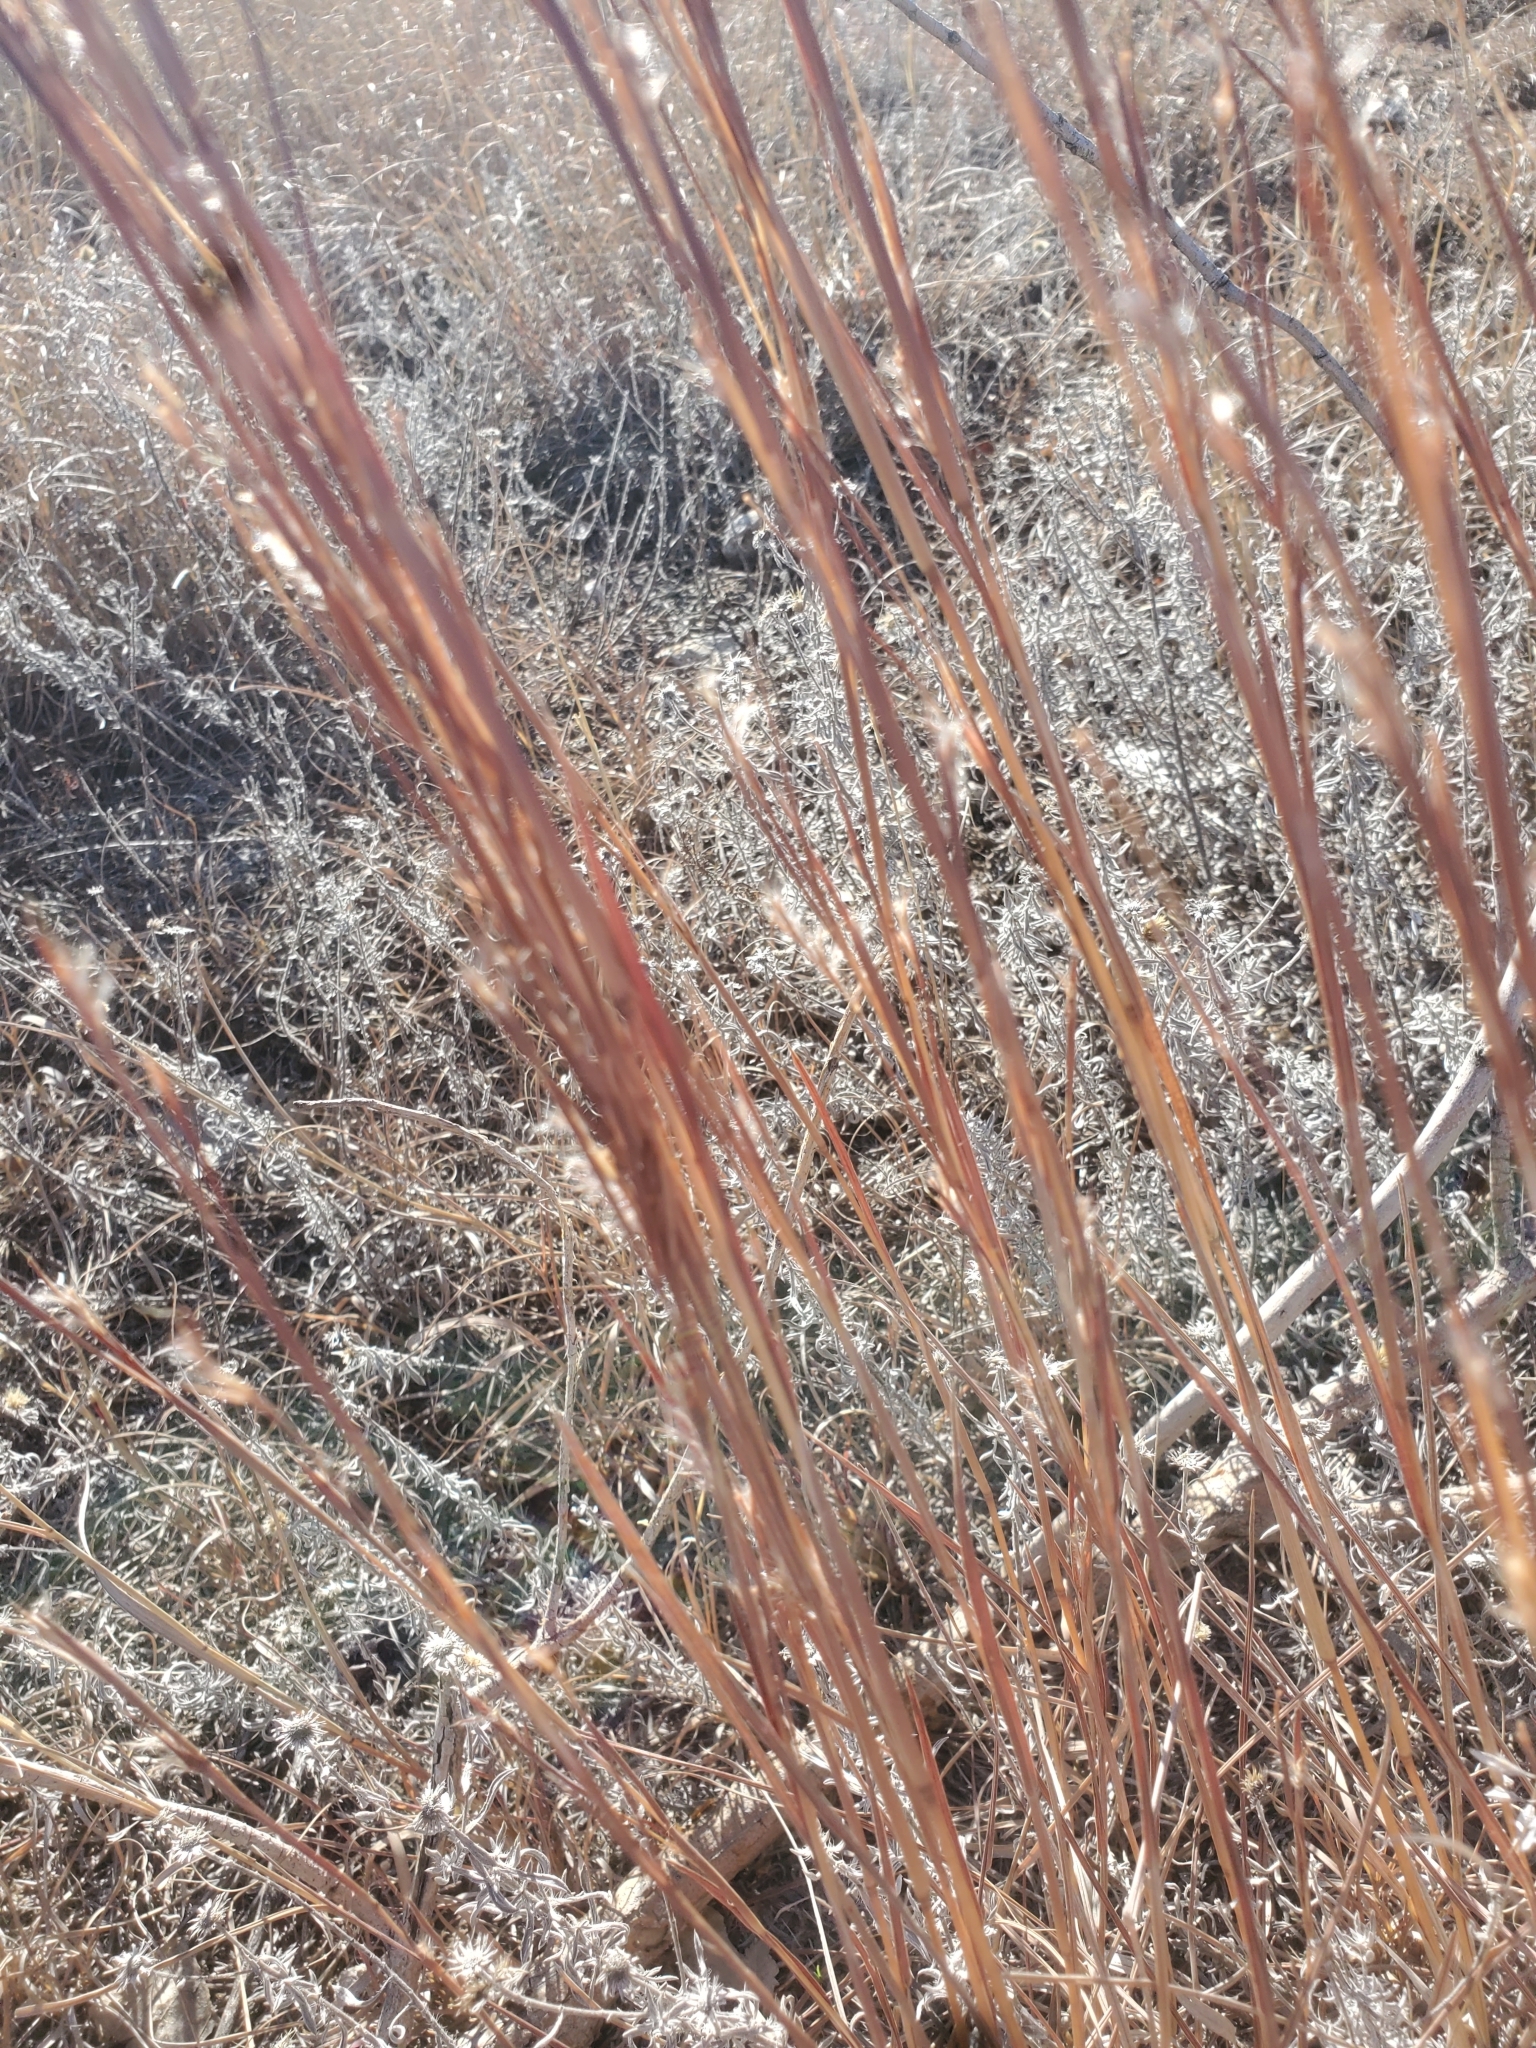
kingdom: Plantae
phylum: Tracheophyta
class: Liliopsida
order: Poales
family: Poaceae
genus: Schizachyrium
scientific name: Schizachyrium scoparium
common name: Little bluestem
